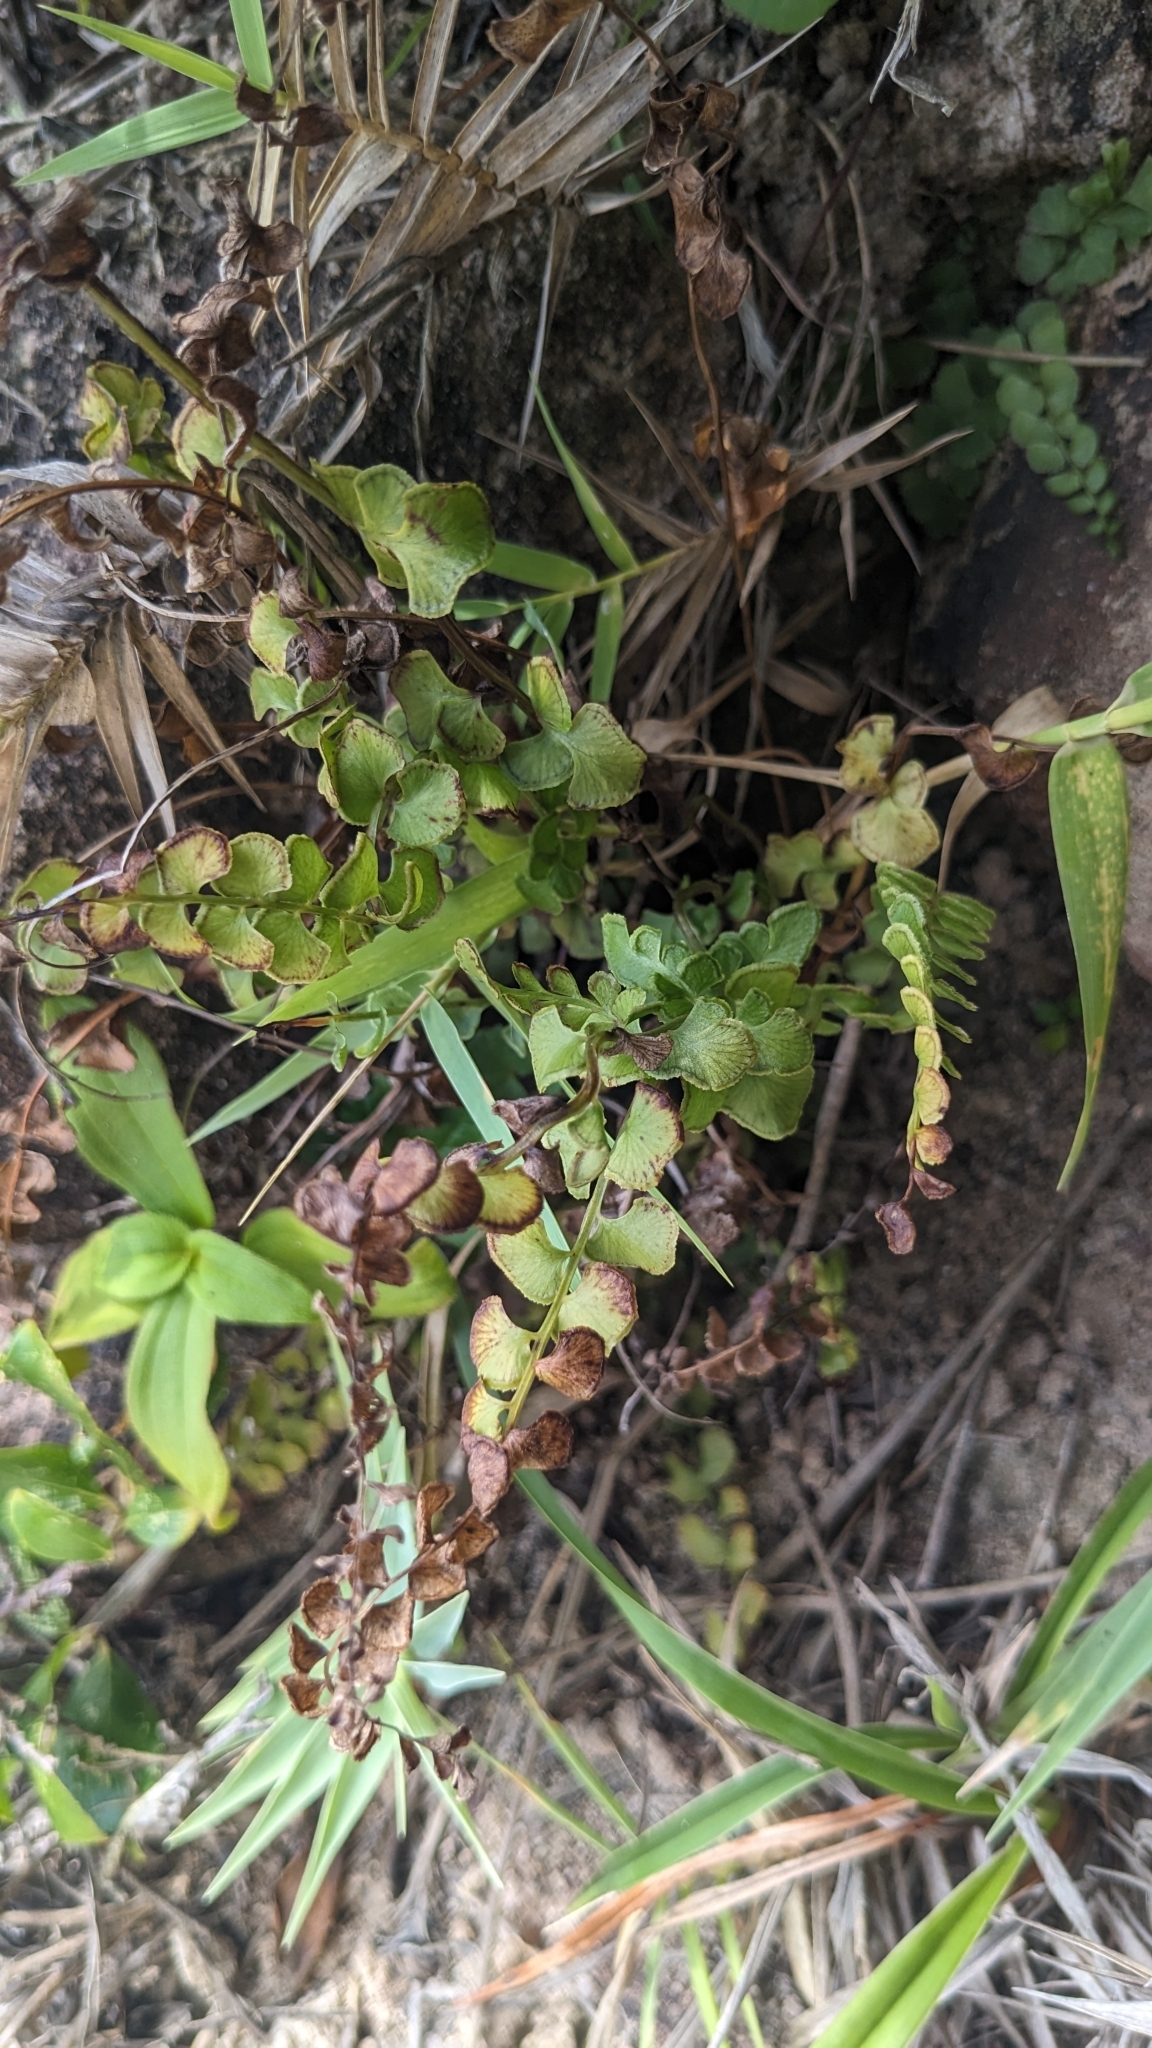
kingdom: Plantae
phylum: Tracheophyta
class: Polypodiopsida
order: Polypodiales
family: Lindsaeaceae
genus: Lindsaea
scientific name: Lindsaea orbiculata
